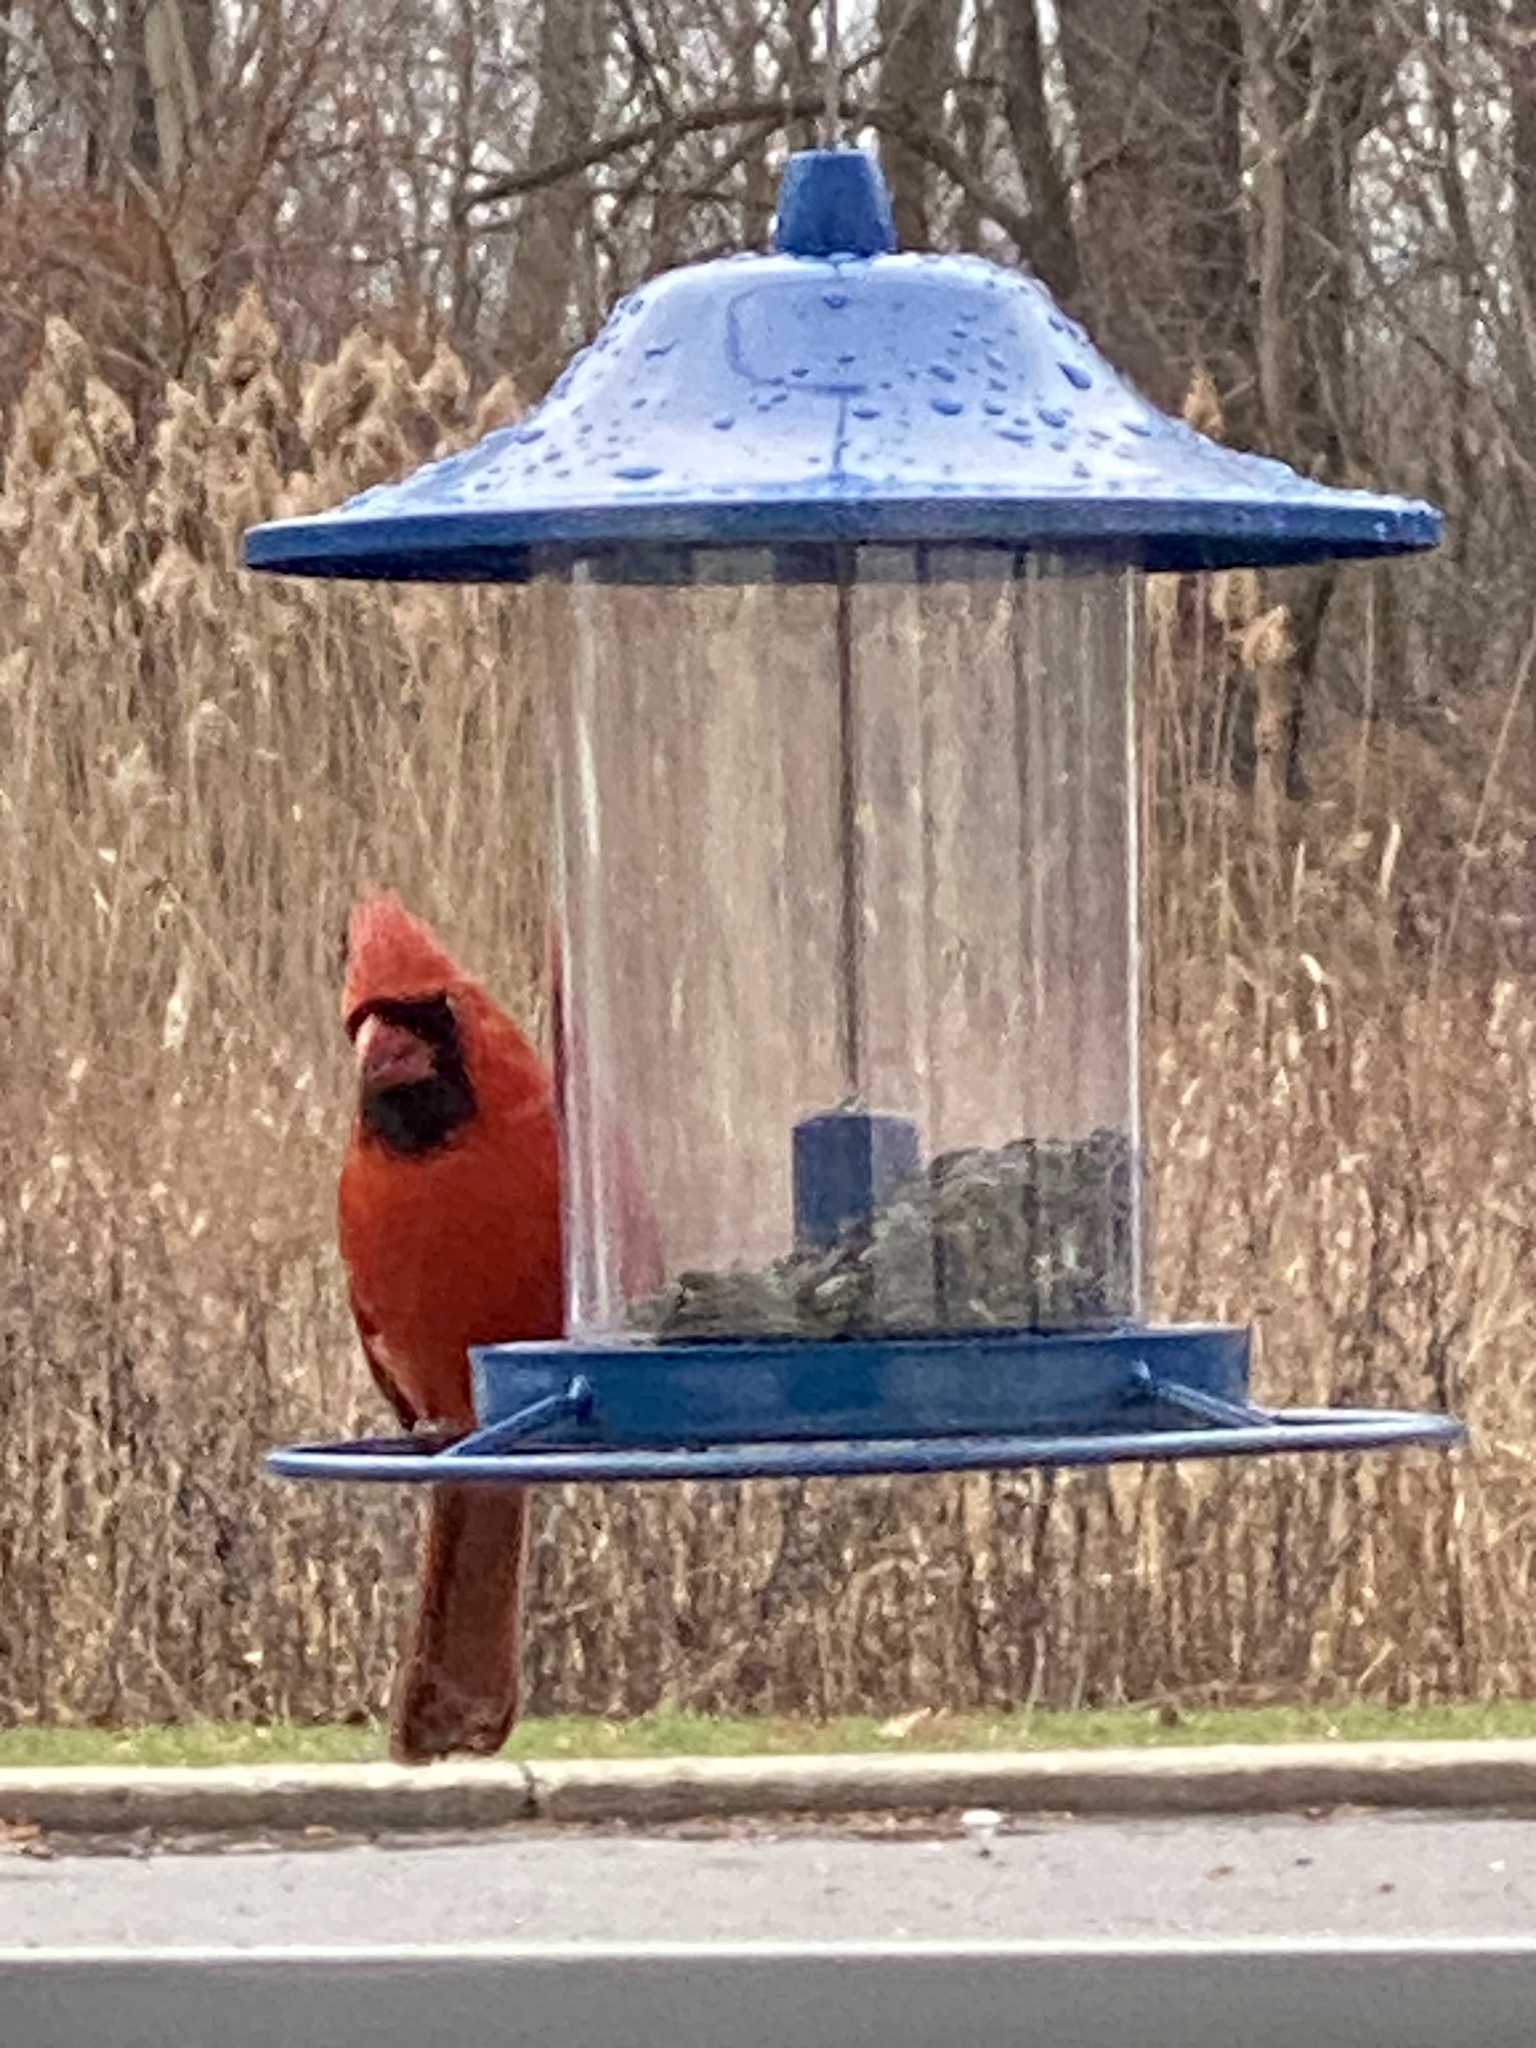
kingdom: Animalia
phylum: Chordata
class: Aves
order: Passeriformes
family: Cardinalidae
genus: Cardinalis
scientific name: Cardinalis cardinalis
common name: Northern cardinal
